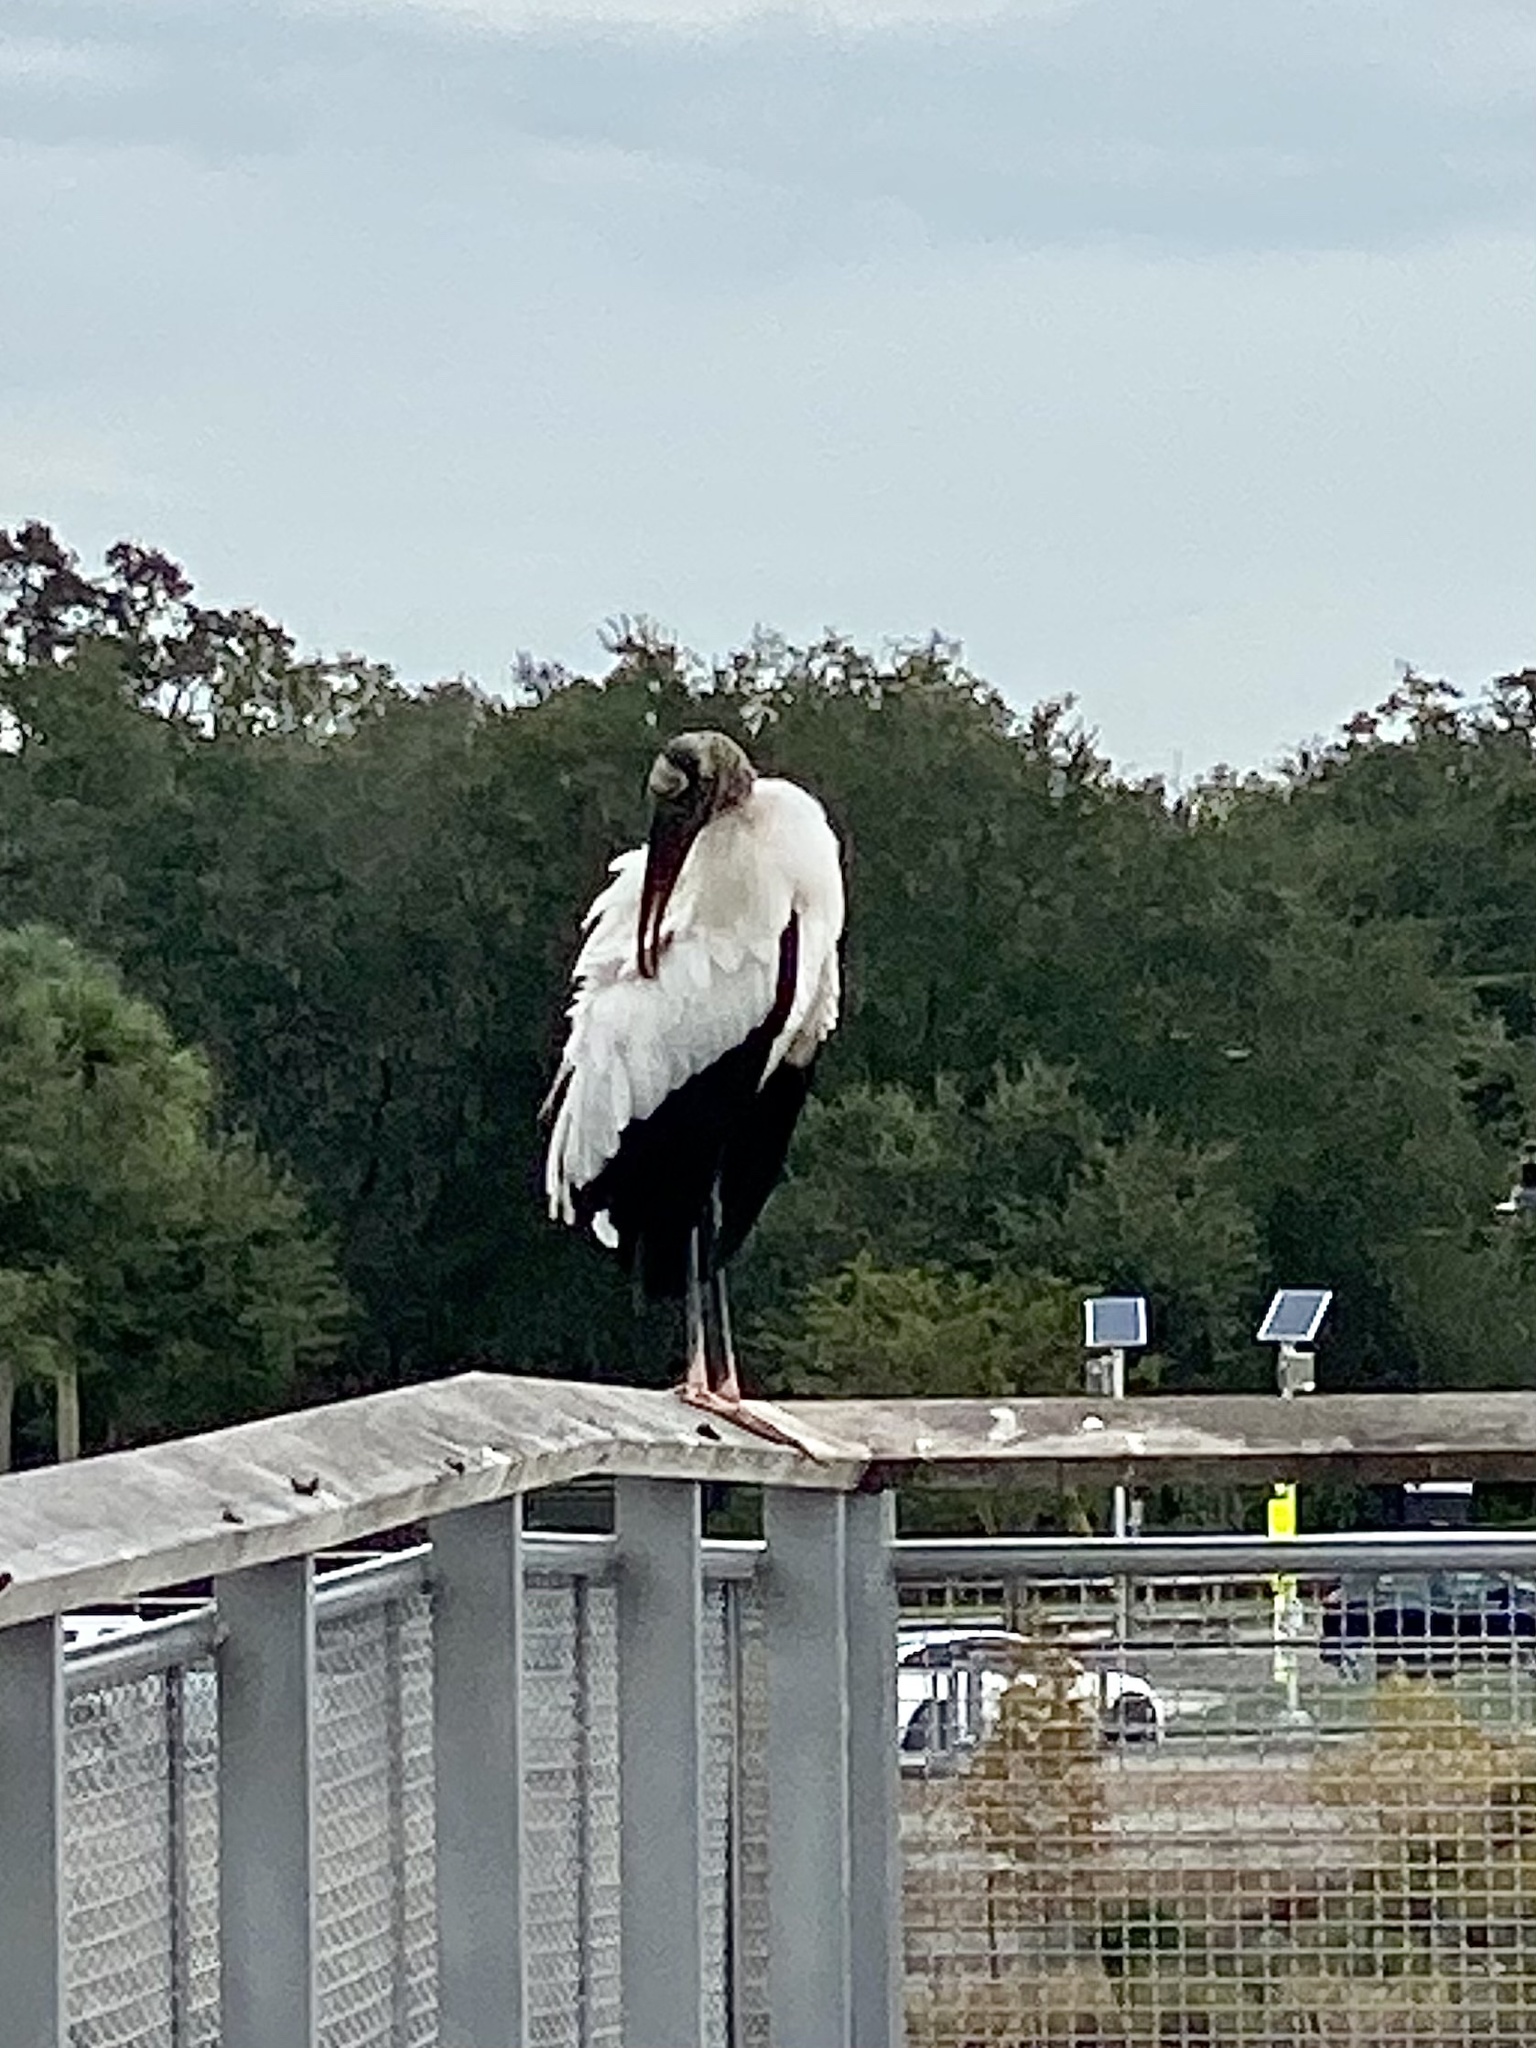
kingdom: Animalia
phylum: Chordata
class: Aves
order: Ciconiiformes
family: Ciconiidae
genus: Mycteria
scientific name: Mycteria americana
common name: Wood stork
